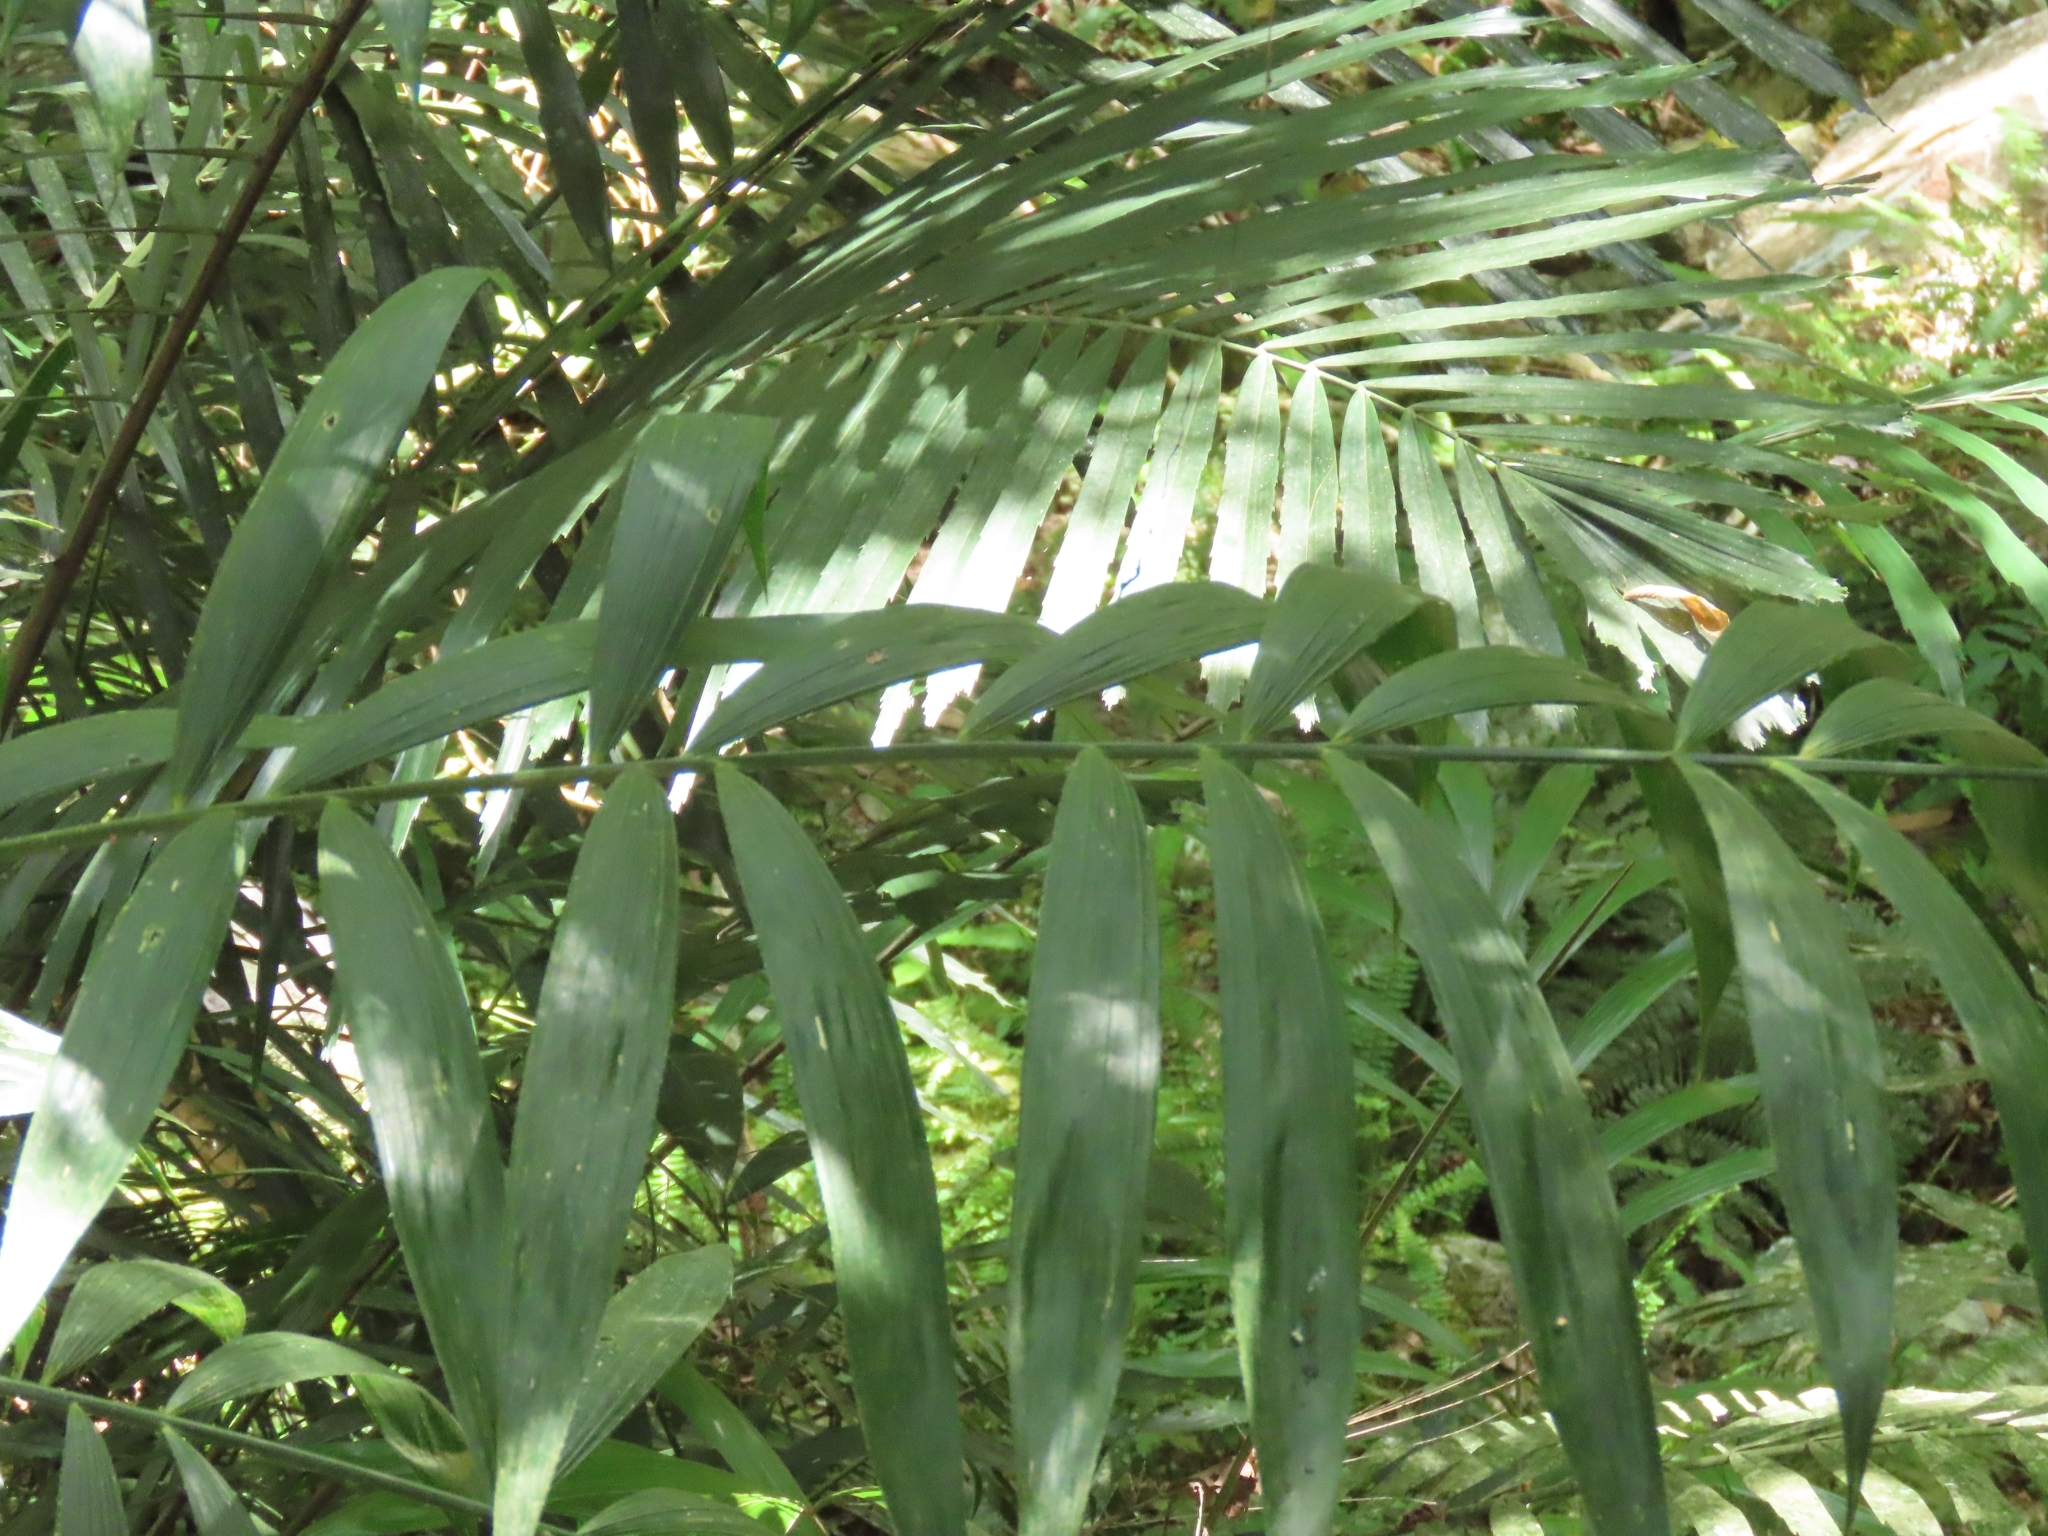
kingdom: Plantae
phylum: Tracheophyta
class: Liliopsida
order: Arecales
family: Arecaceae
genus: Calamus
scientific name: Calamus formosanus
